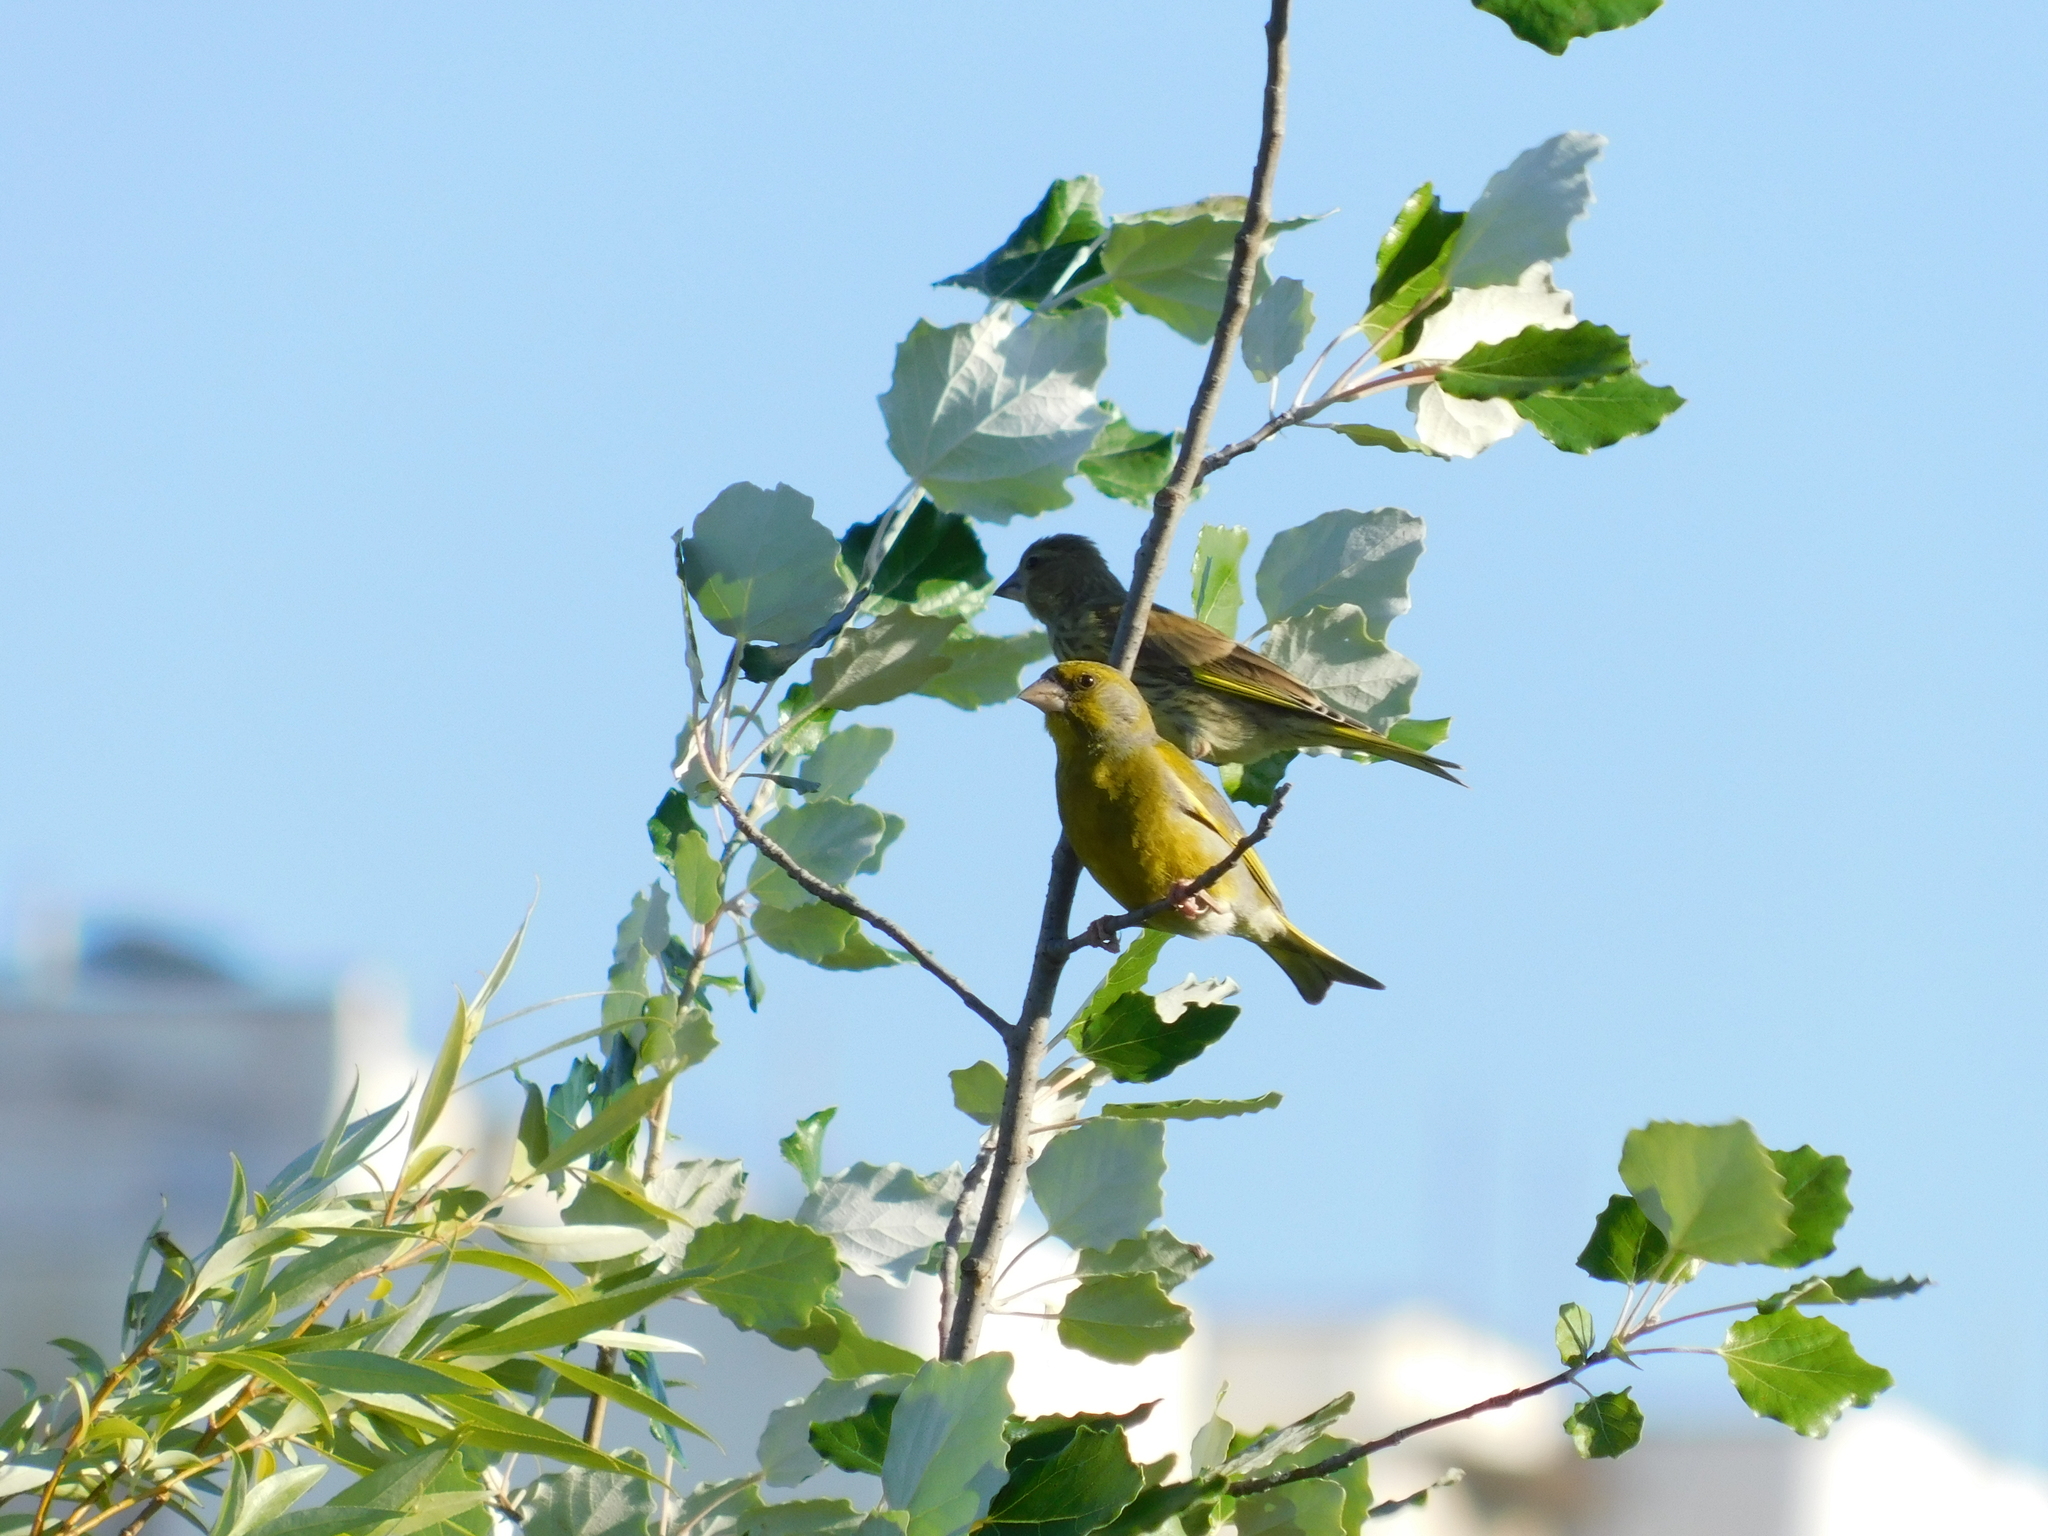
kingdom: Plantae
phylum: Tracheophyta
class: Liliopsida
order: Poales
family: Poaceae
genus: Chloris
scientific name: Chloris chloris
